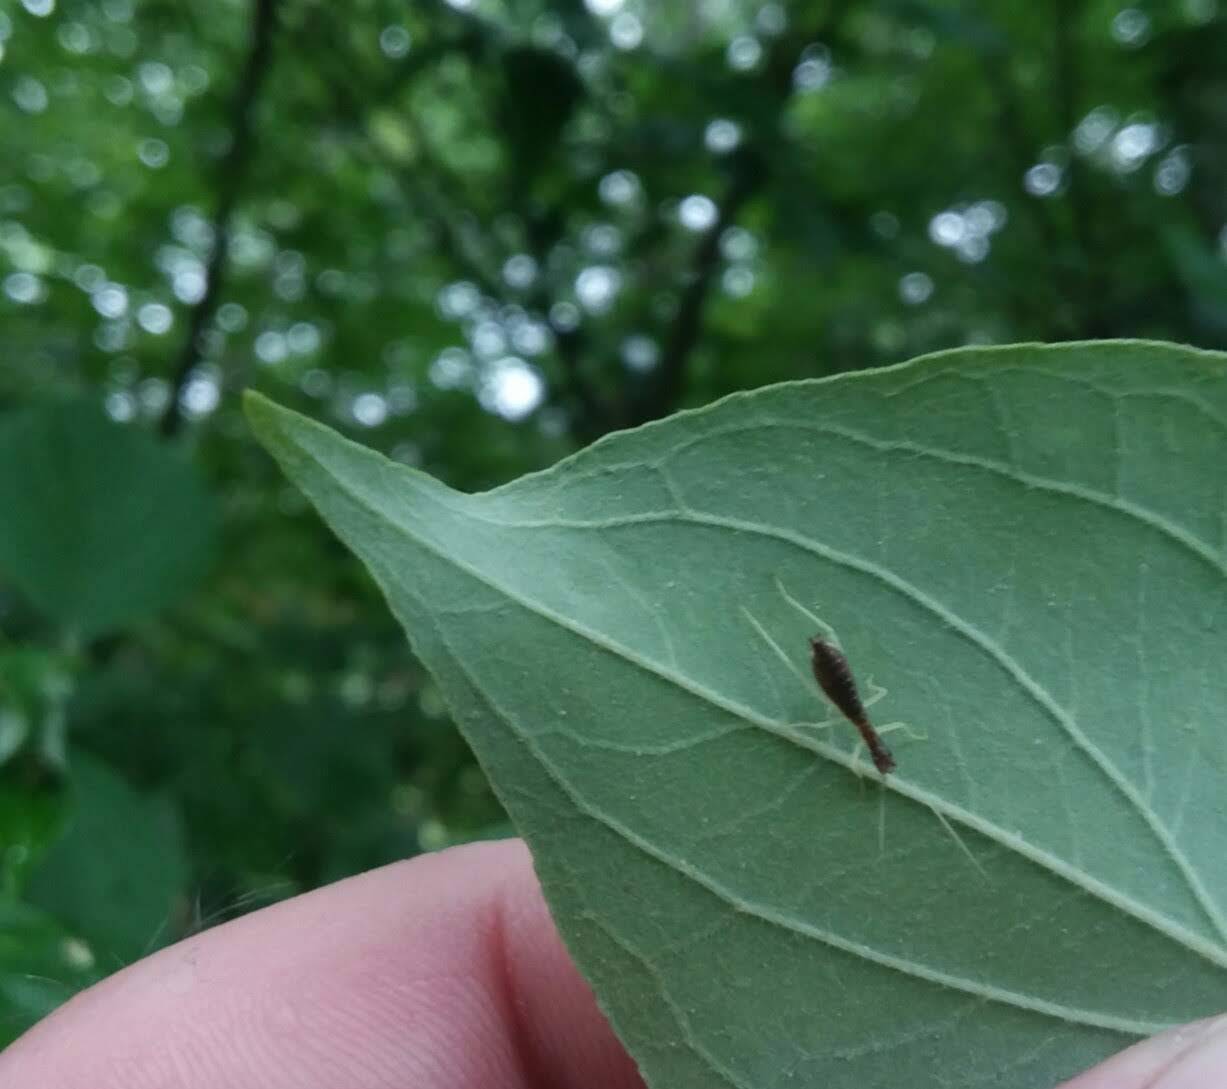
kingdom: Animalia
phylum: Arthropoda
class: Insecta
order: Orthoptera
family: Gryllidae
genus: Neoxabea
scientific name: Neoxabea bipunctata
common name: Two-spotted tree cricket
